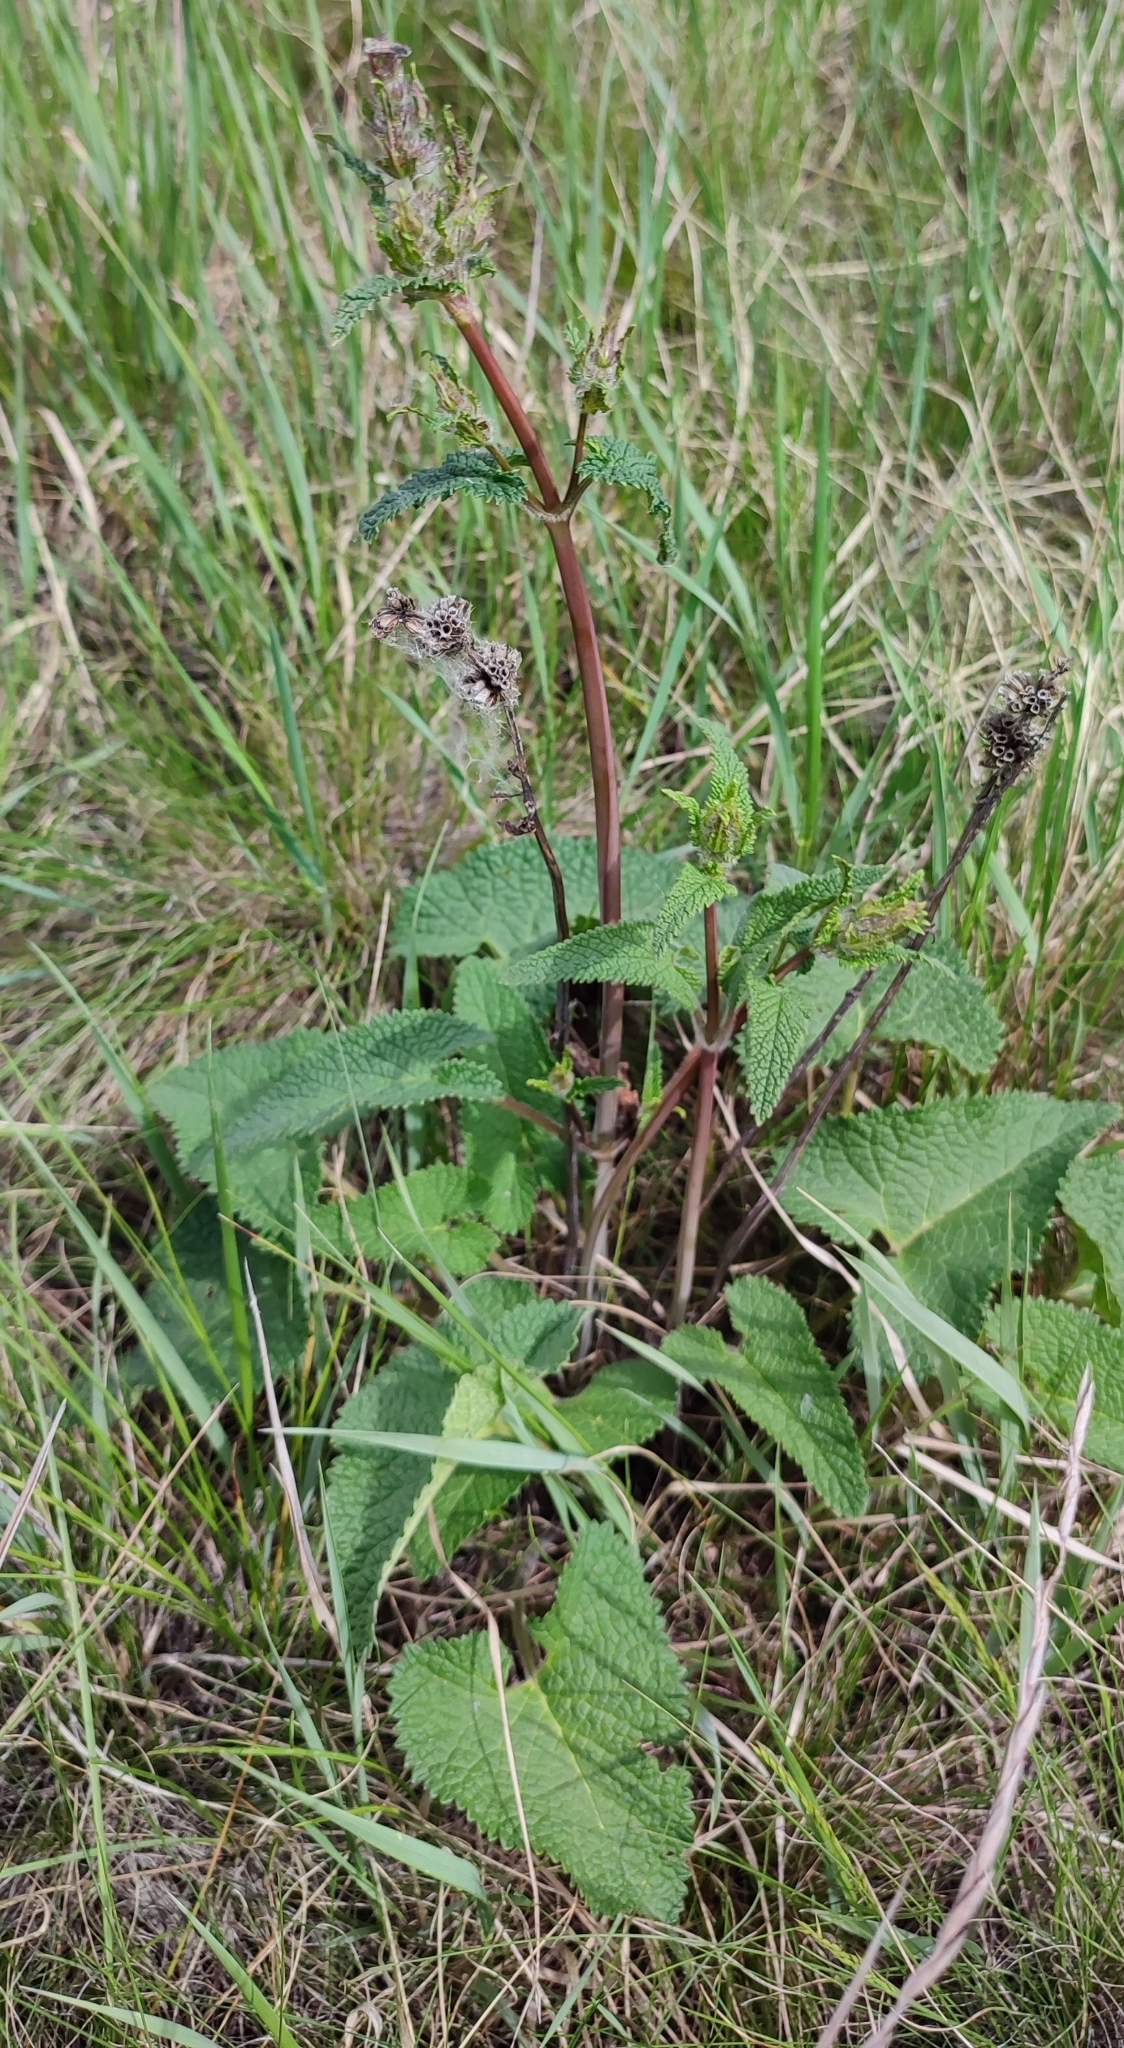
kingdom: Plantae
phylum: Tracheophyta
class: Magnoliopsida
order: Lamiales
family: Lamiaceae
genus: Phlomoides
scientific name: Phlomoides tuberosa
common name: Tuberous jerusalem sage
